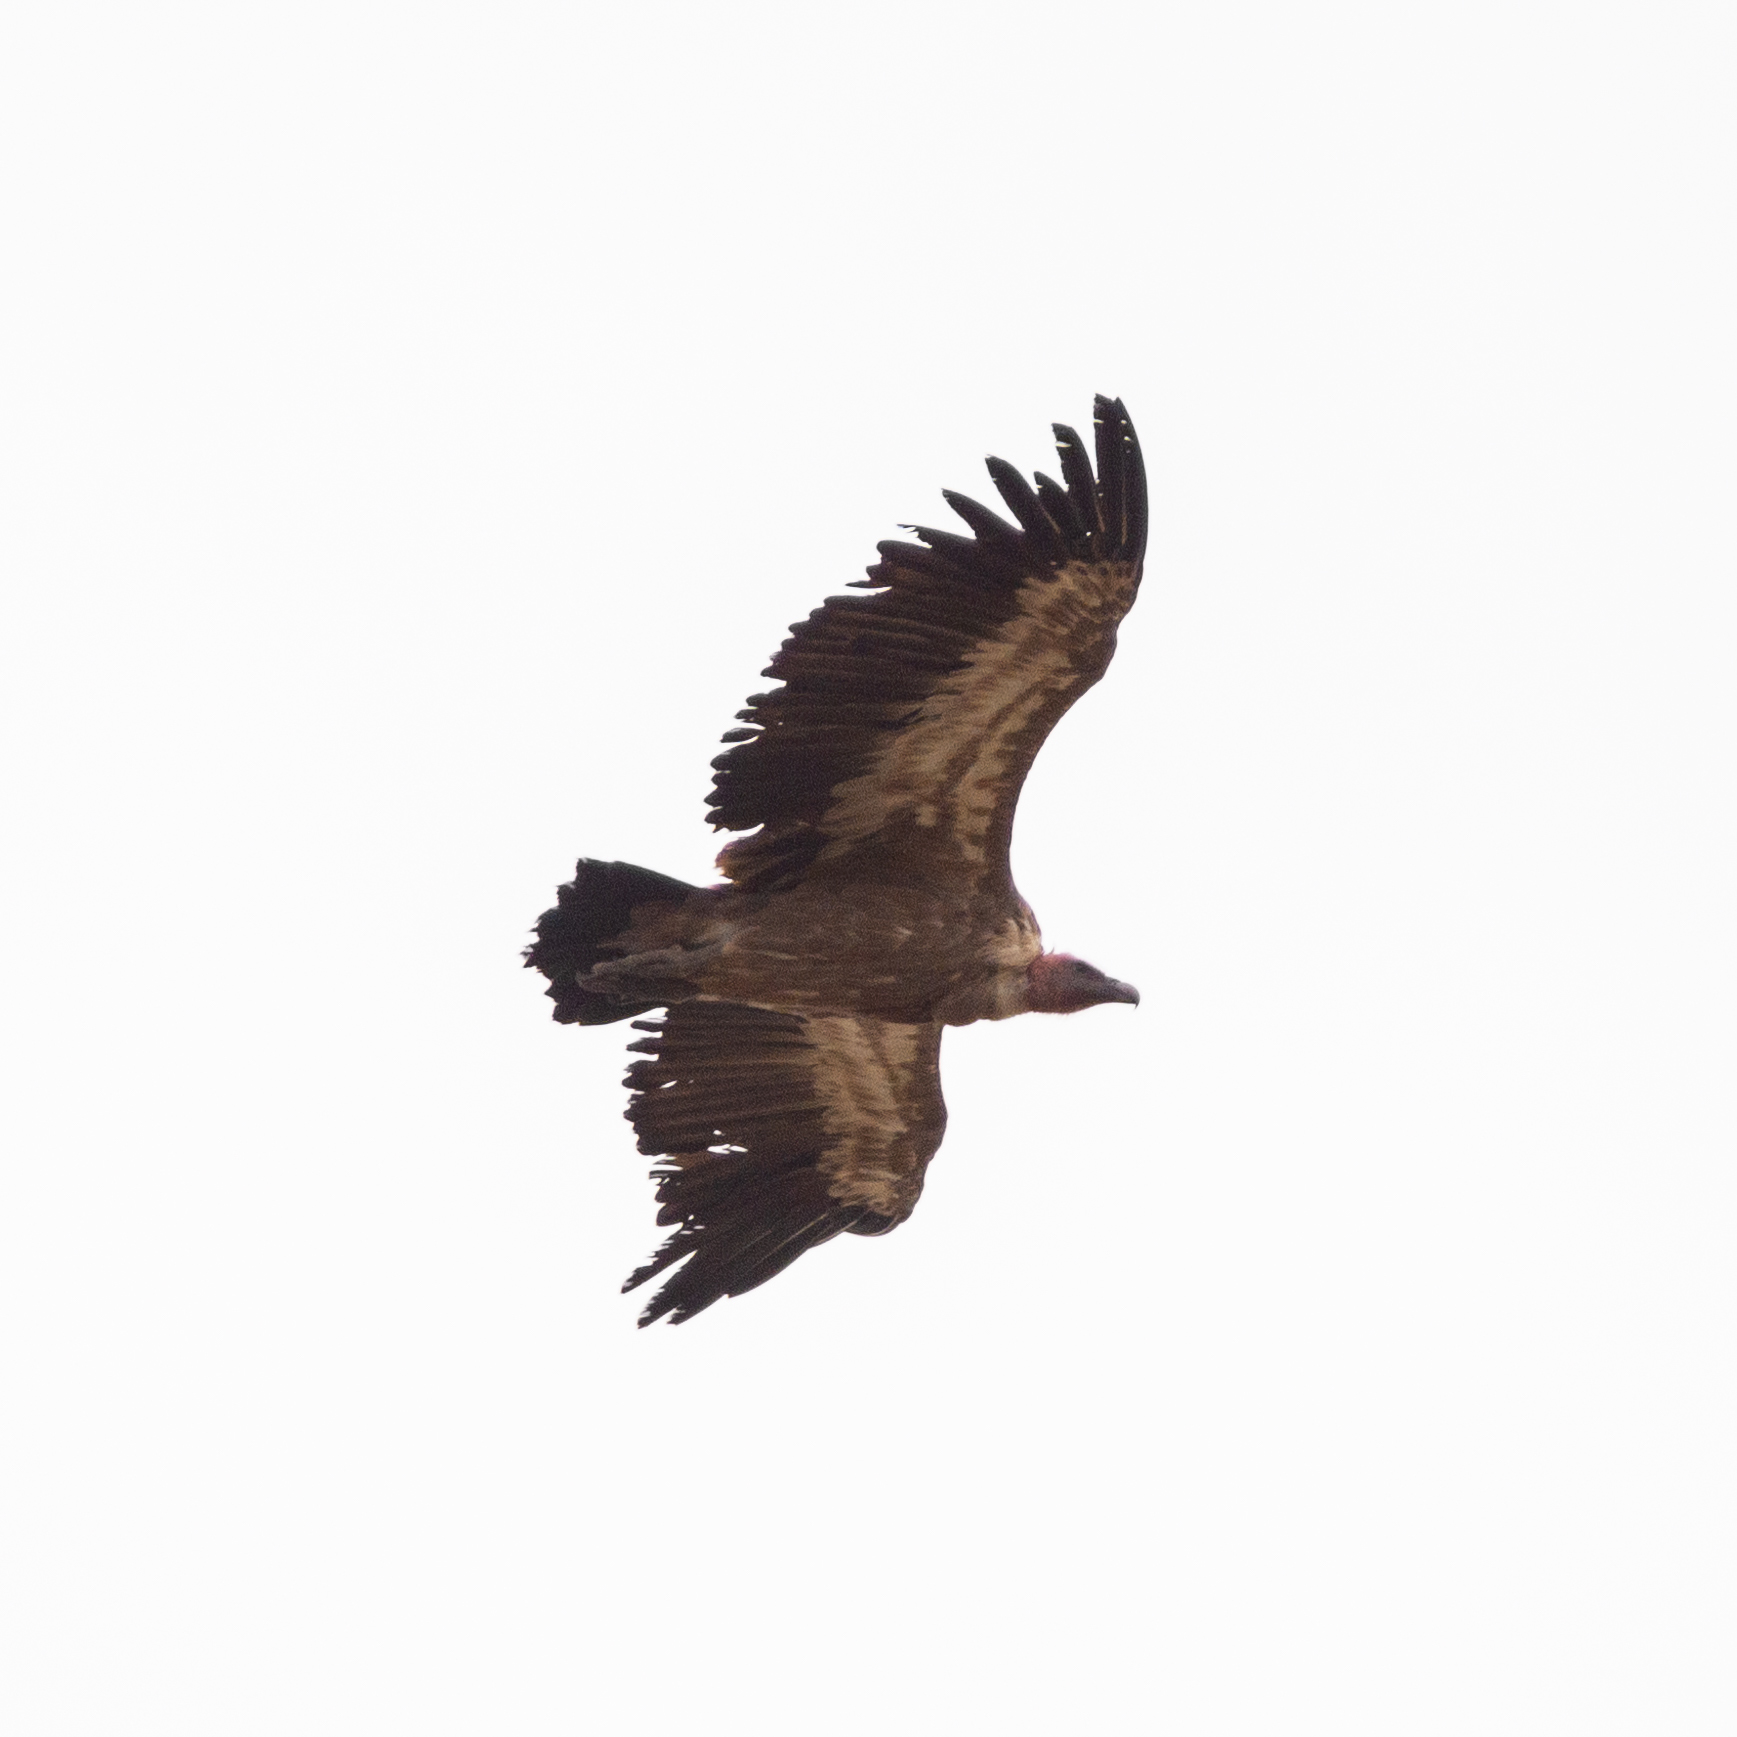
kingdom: Animalia
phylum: Chordata
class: Aves
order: Accipitriformes
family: Accipitridae
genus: Gyps
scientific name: Gyps fulvus
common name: Griffon vulture
